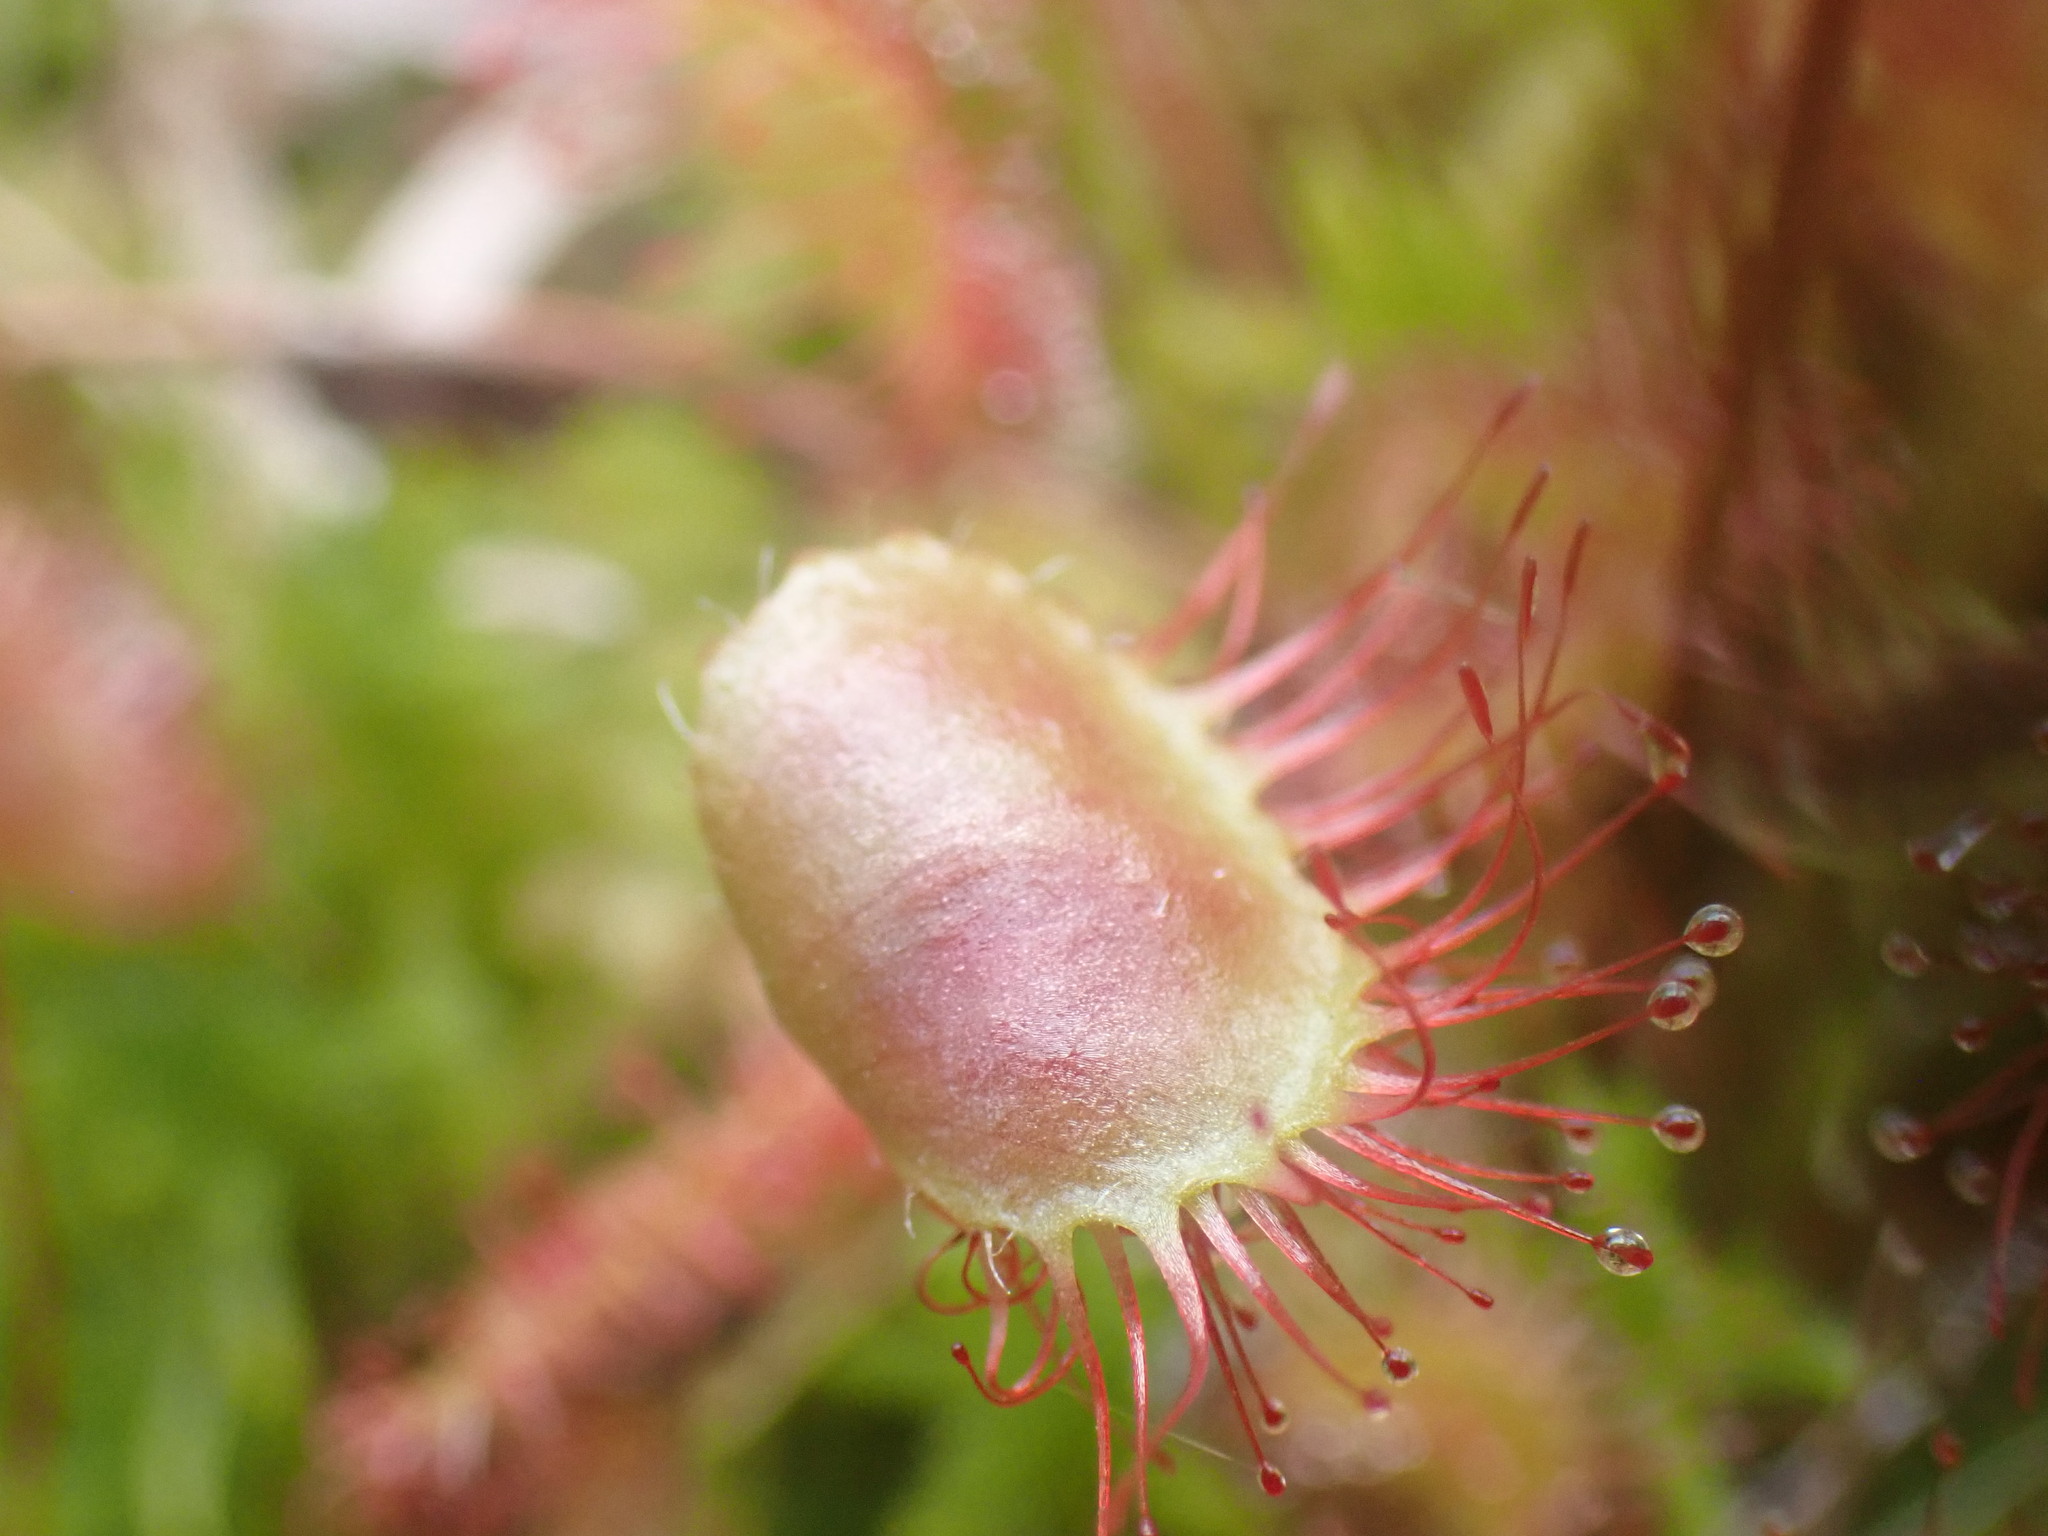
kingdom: Plantae
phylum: Tracheophyta
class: Magnoliopsida
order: Caryophyllales
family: Droseraceae
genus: Drosera
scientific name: Drosera rotundifolia
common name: Round-leaved sundew
